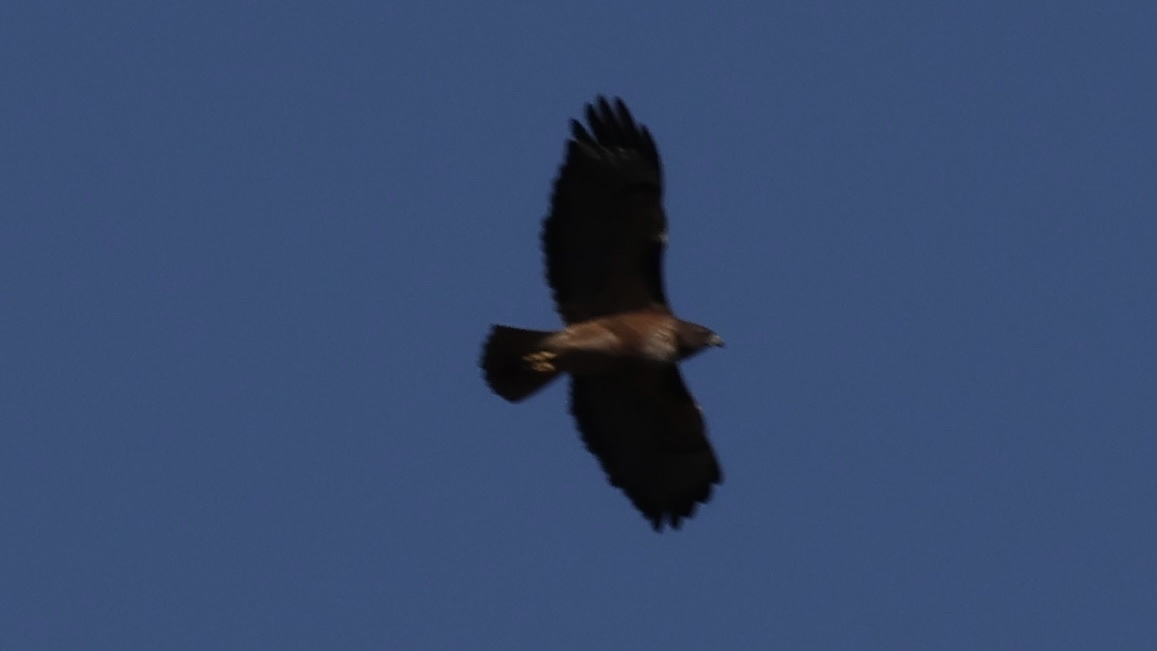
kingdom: Animalia
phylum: Chordata
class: Aves
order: Accipitriformes
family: Accipitridae
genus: Buteo
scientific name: Buteo jamaicensis
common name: Red-tailed hawk
